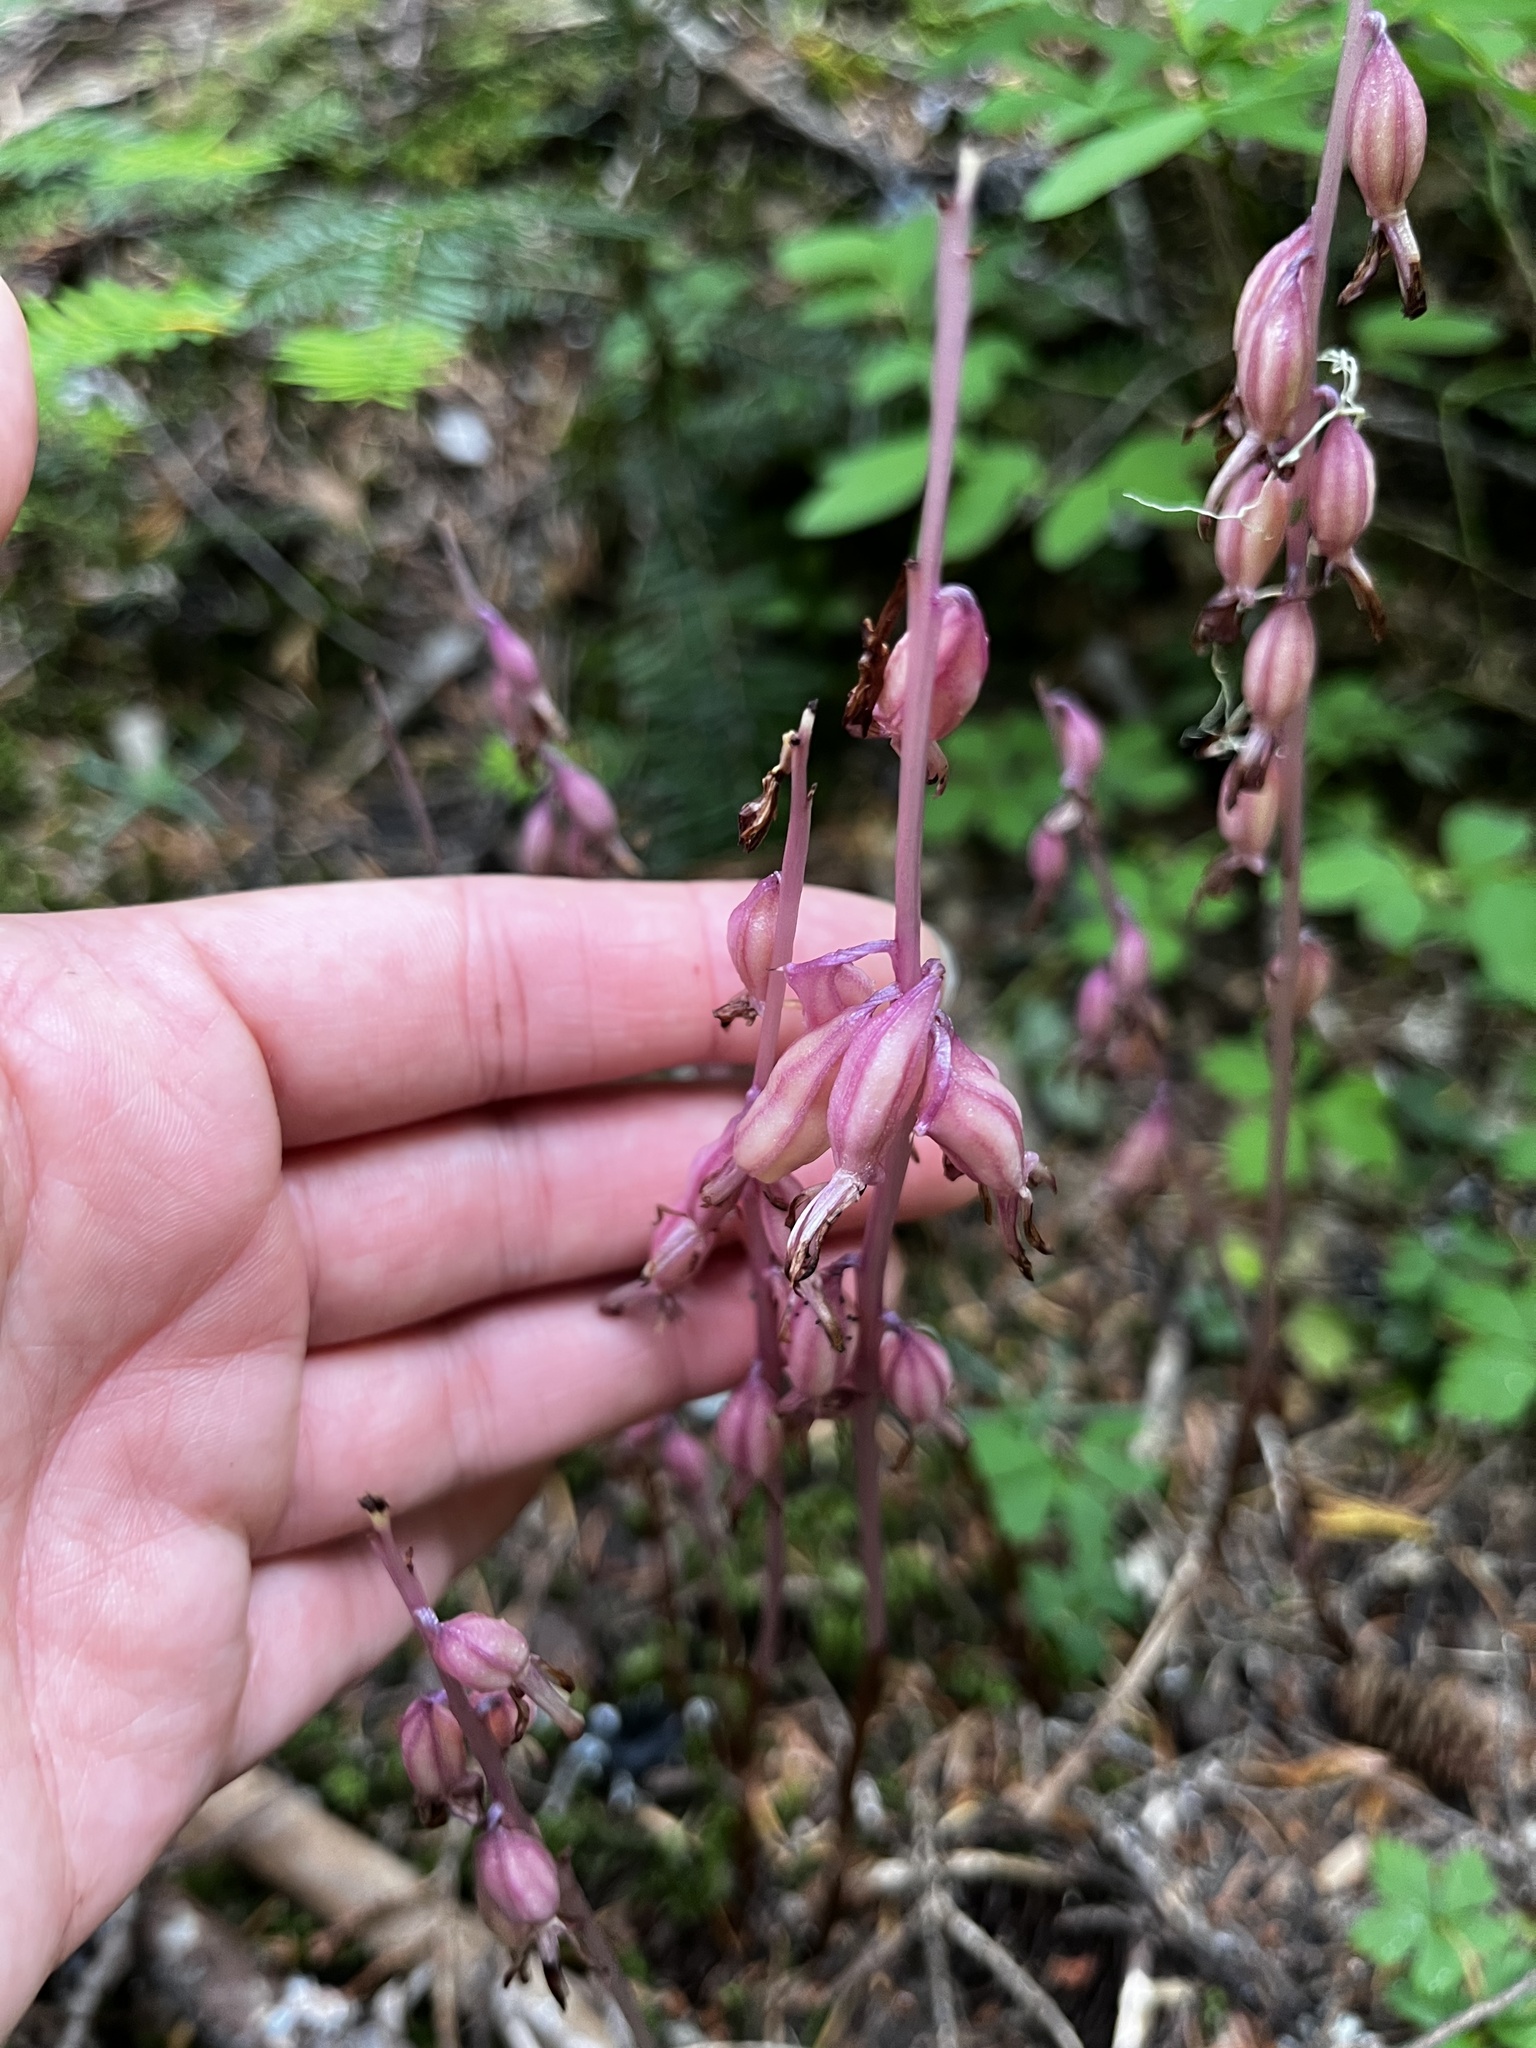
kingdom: Plantae
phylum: Tracheophyta
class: Liliopsida
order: Asparagales
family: Orchidaceae
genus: Corallorhiza
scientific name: Corallorhiza mertensiana
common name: Pacific coralroot
